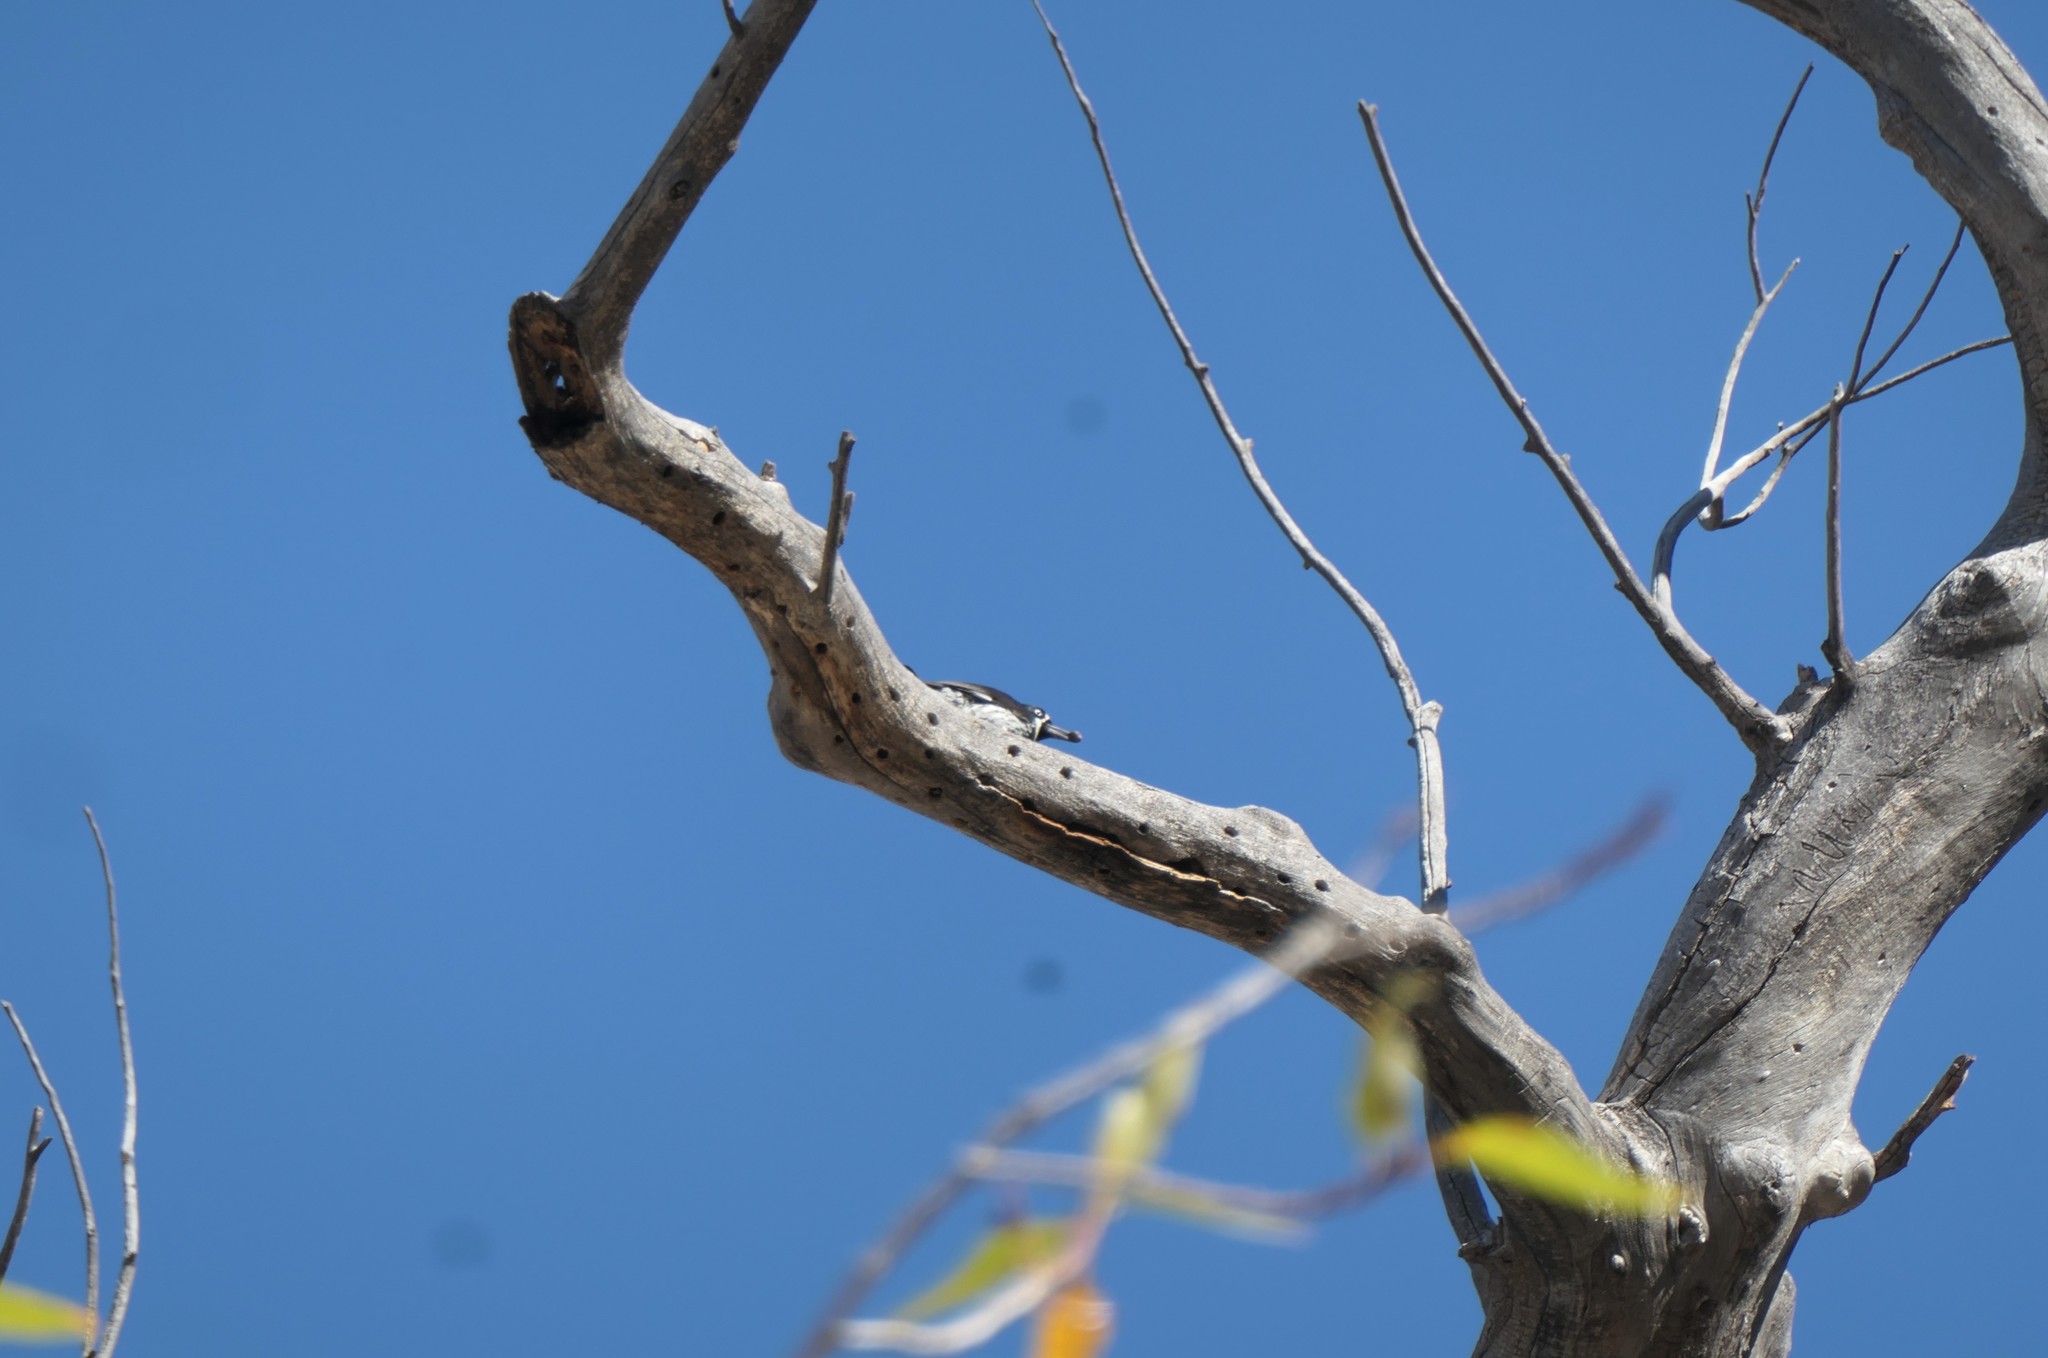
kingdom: Animalia
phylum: Chordata
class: Aves
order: Piciformes
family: Picidae
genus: Melanerpes
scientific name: Melanerpes formicivorus
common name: Acorn woodpecker
